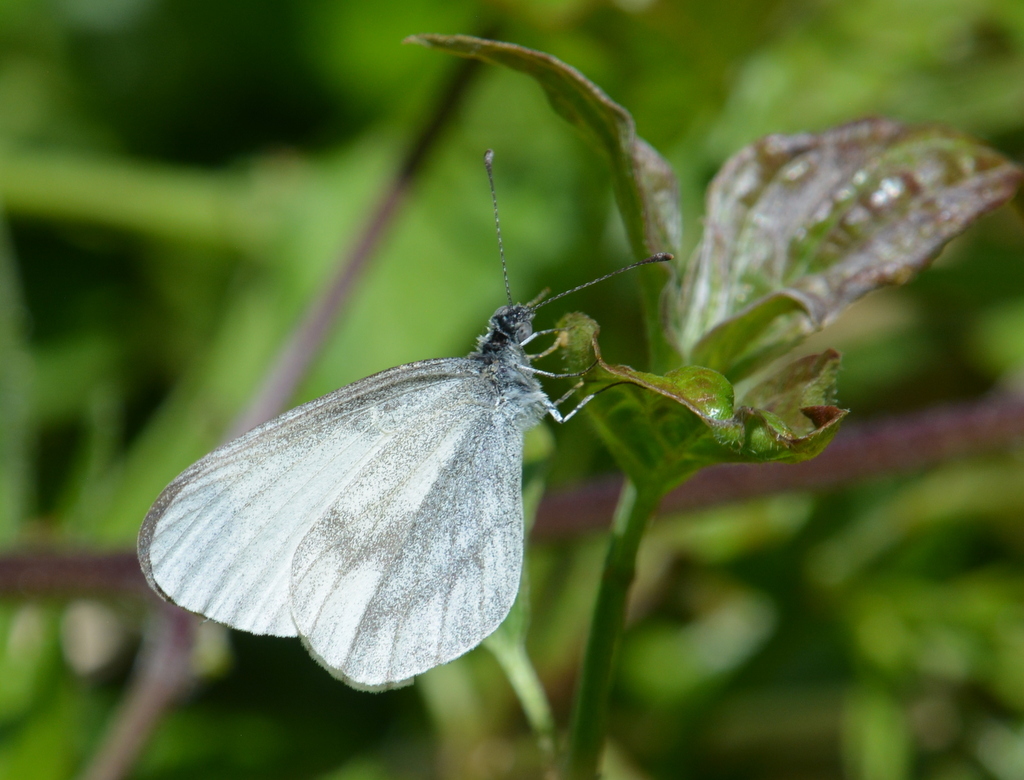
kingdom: Animalia
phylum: Arthropoda
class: Insecta
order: Lepidoptera
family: Pieridae
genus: Leptidea
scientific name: Leptidea sinapis
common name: Wood white
